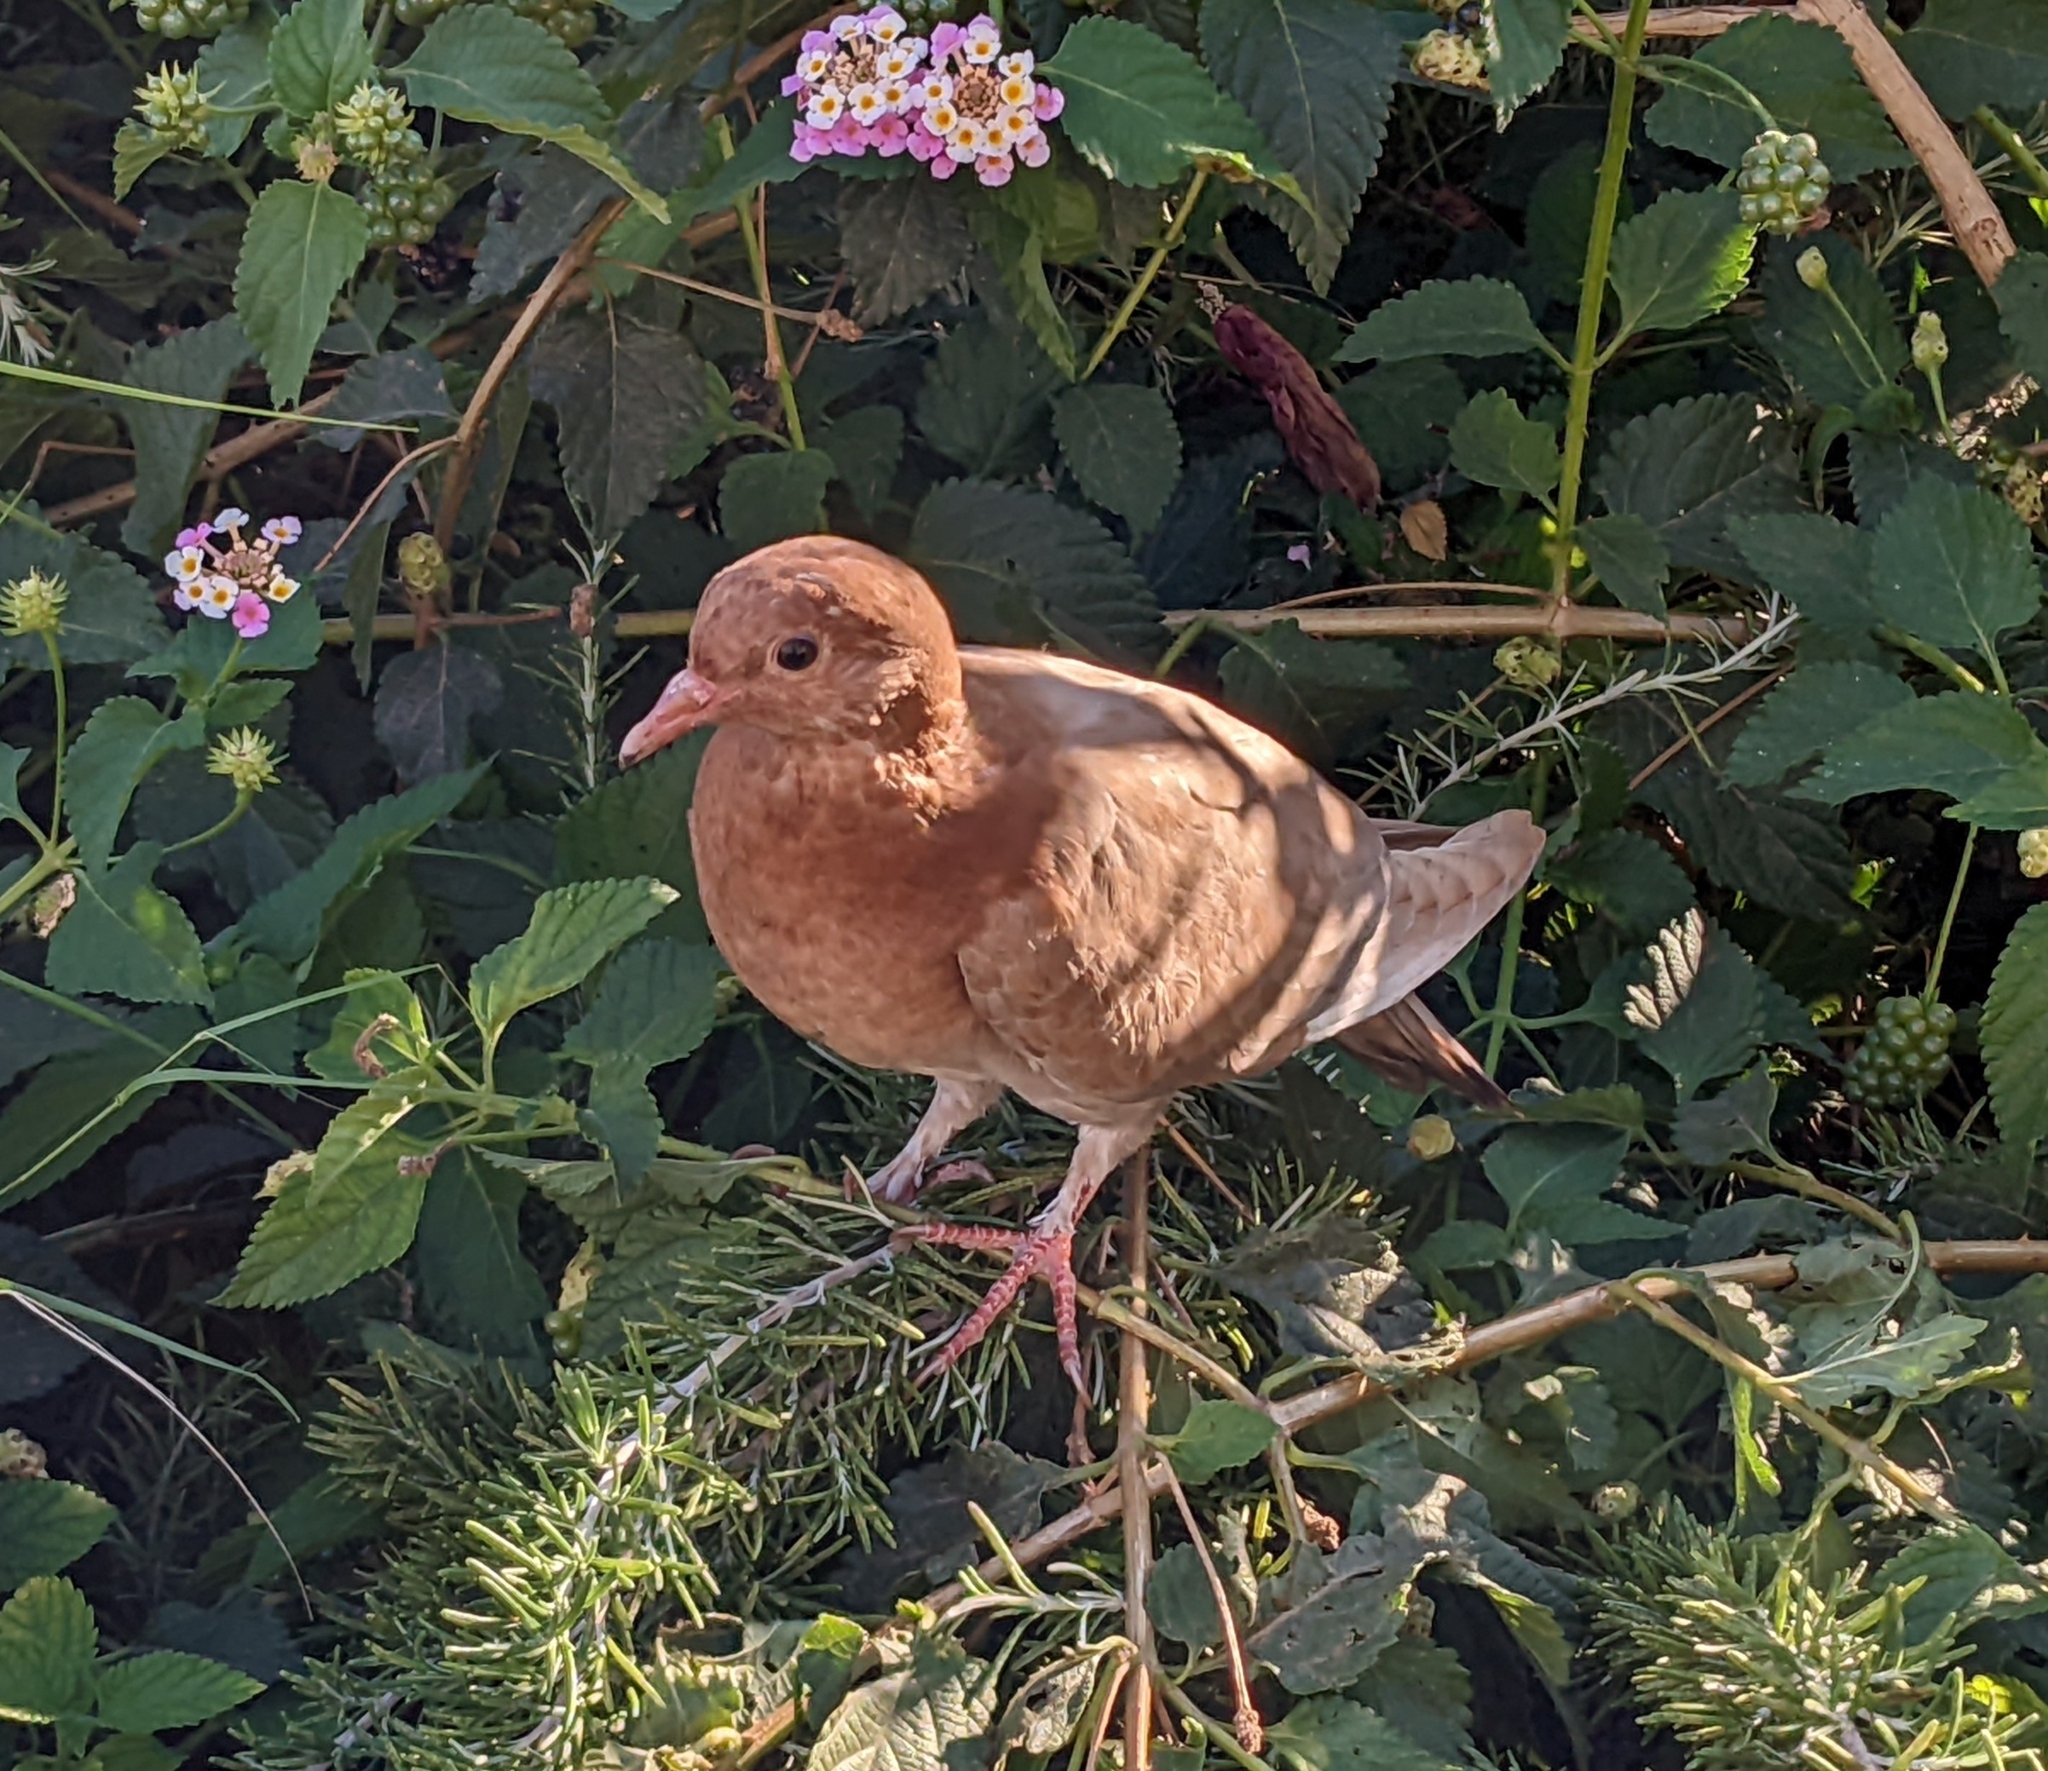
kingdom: Animalia
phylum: Chordata
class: Aves
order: Columbiformes
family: Columbidae
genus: Columba
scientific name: Columba livia
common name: Rock pigeon
